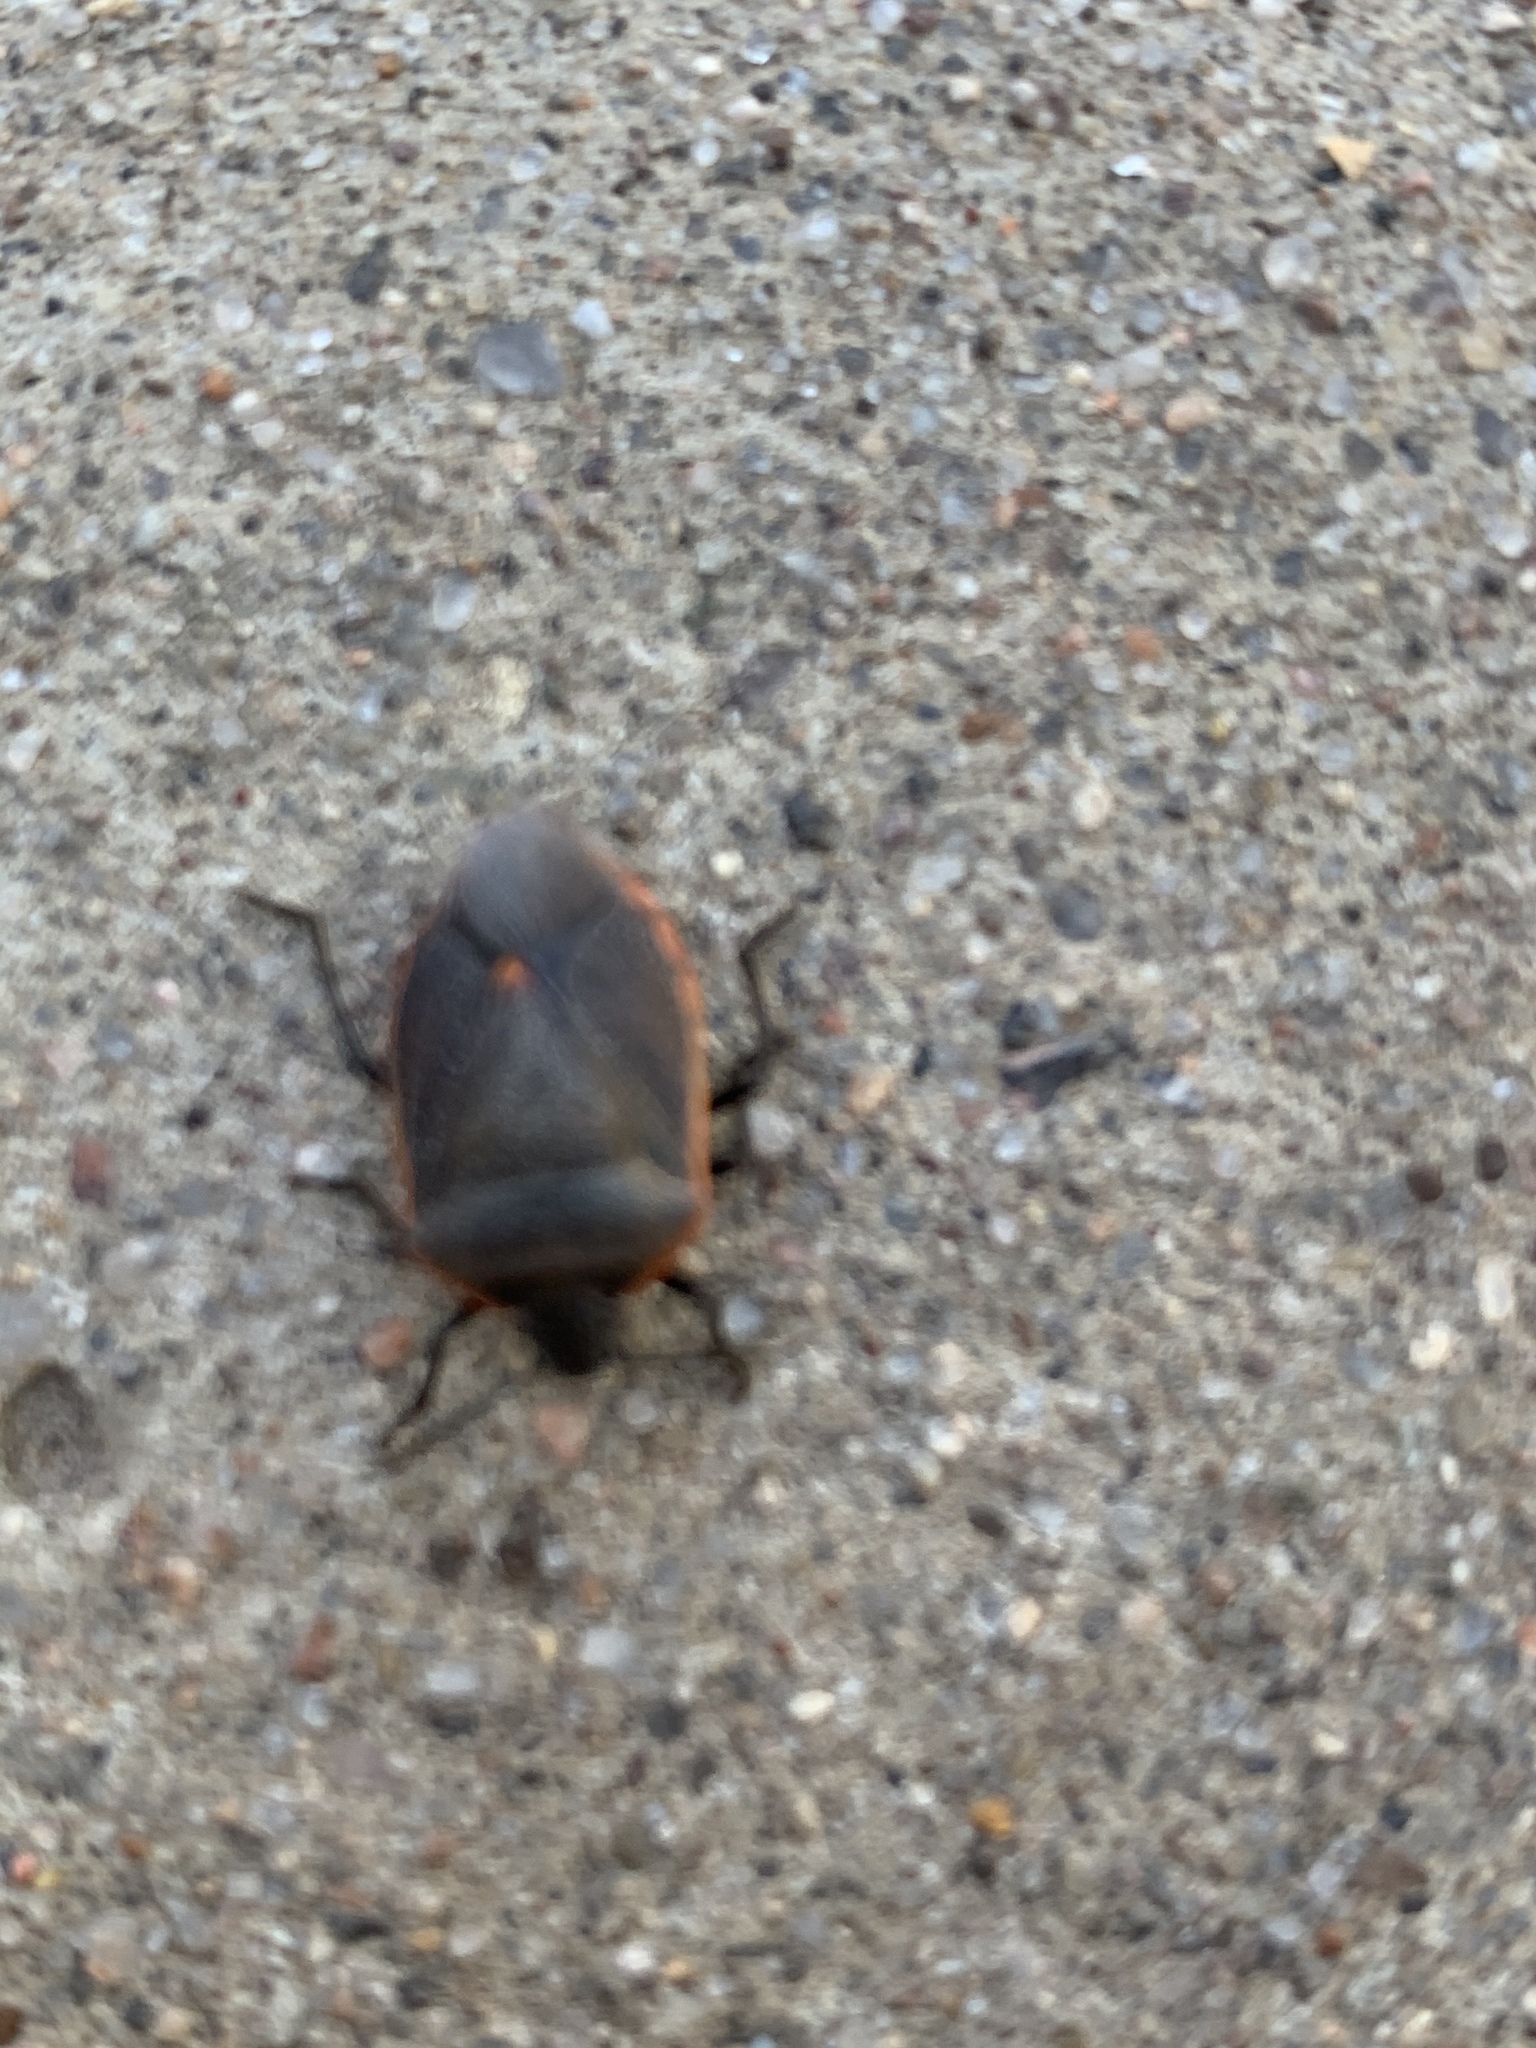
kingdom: Animalia
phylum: Arthropoda
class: Insecta
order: Hemiptera
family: Pentatomidae
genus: Chlorochroa
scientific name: Chlorochroa ligata
